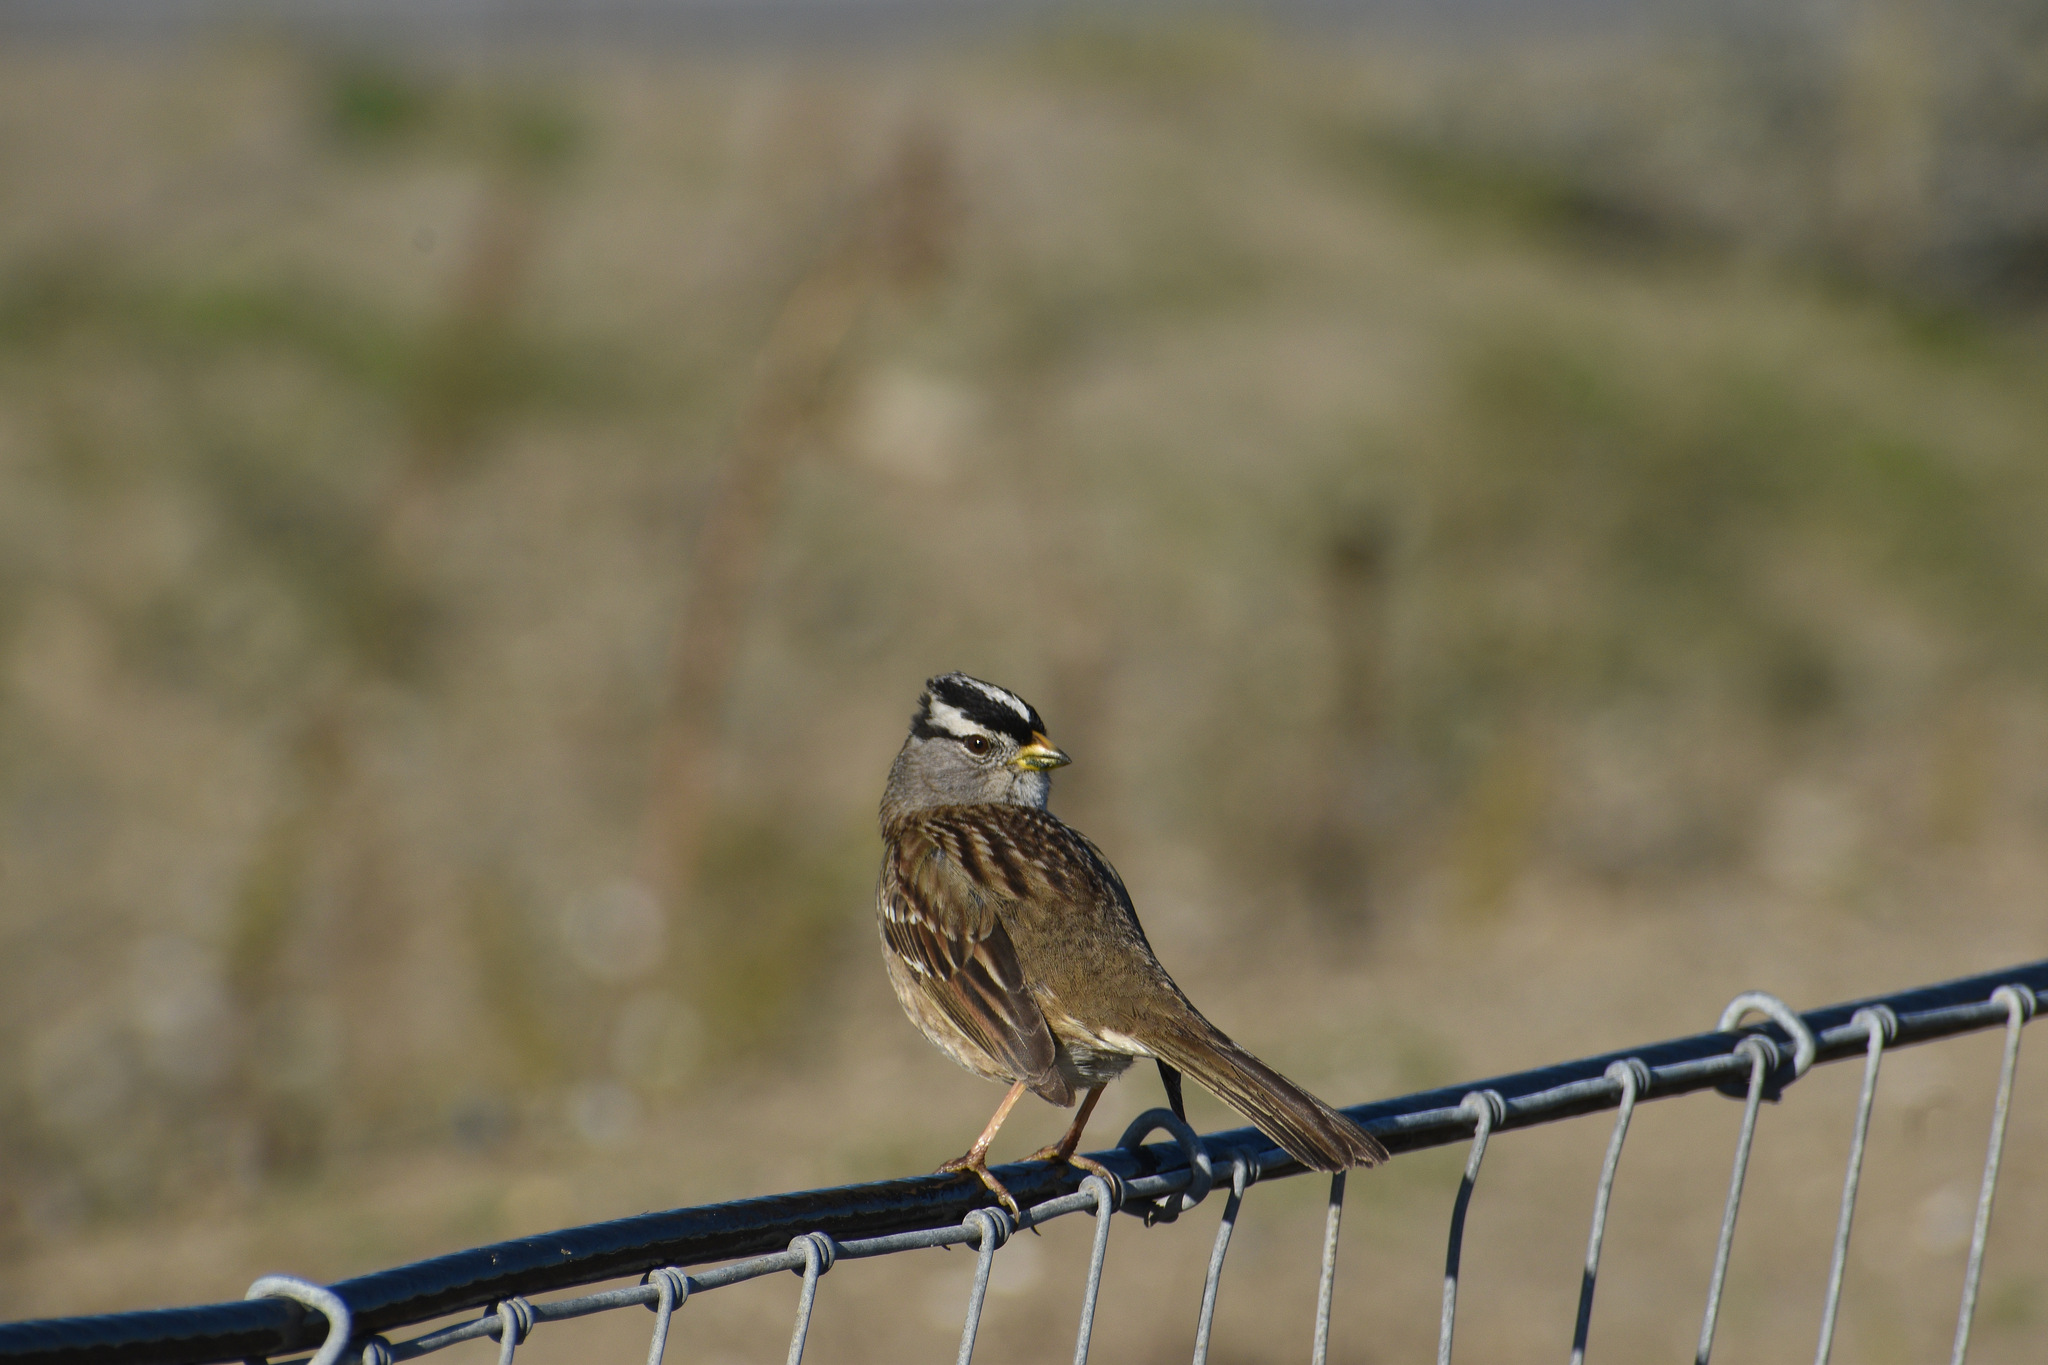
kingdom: Animalia
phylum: Chordata
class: Aves
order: Passeriformes
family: Passerellidae
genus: Zonotrichia
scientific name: Zonotrichia leucophrys
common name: White-crowned sparrow
